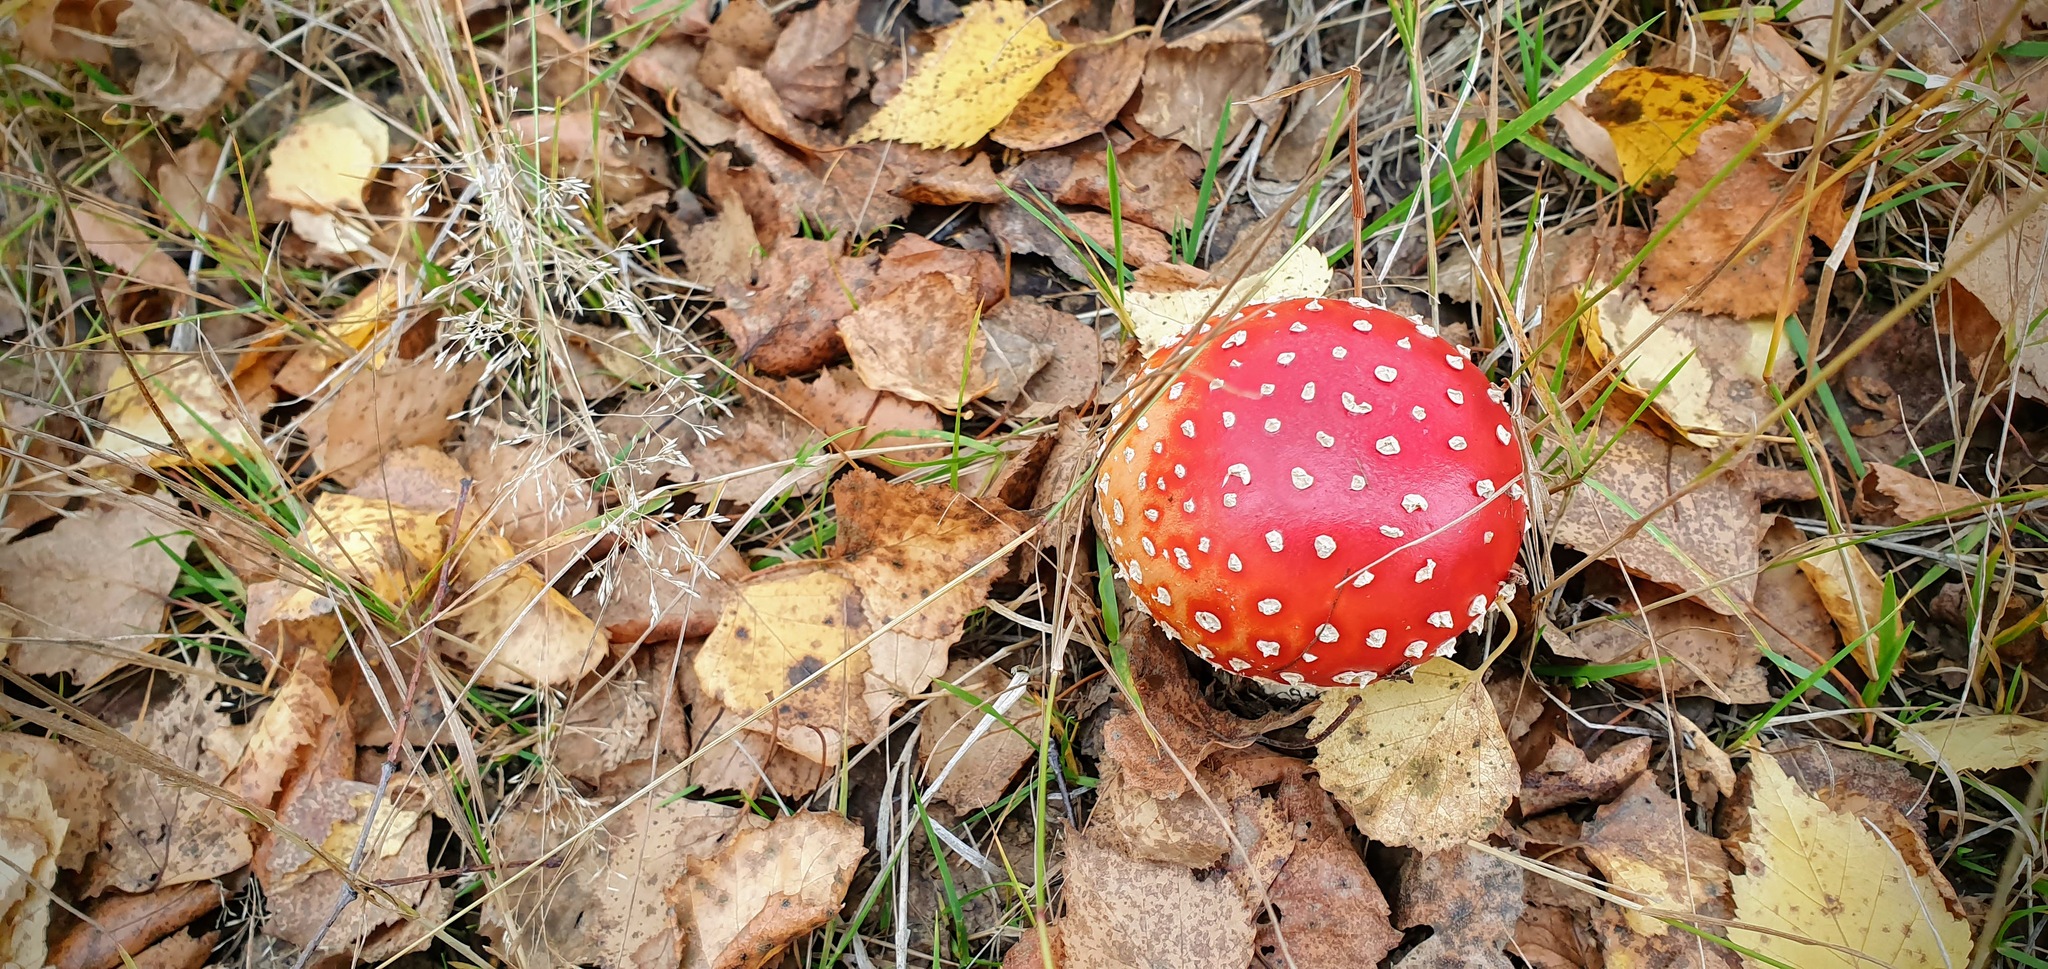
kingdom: Fungi
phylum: Basidiomycota
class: Agaricomycetes
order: Agaricales
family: Amanitaceae
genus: Amanita
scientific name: Amanita muscaria
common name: Fly agaric
